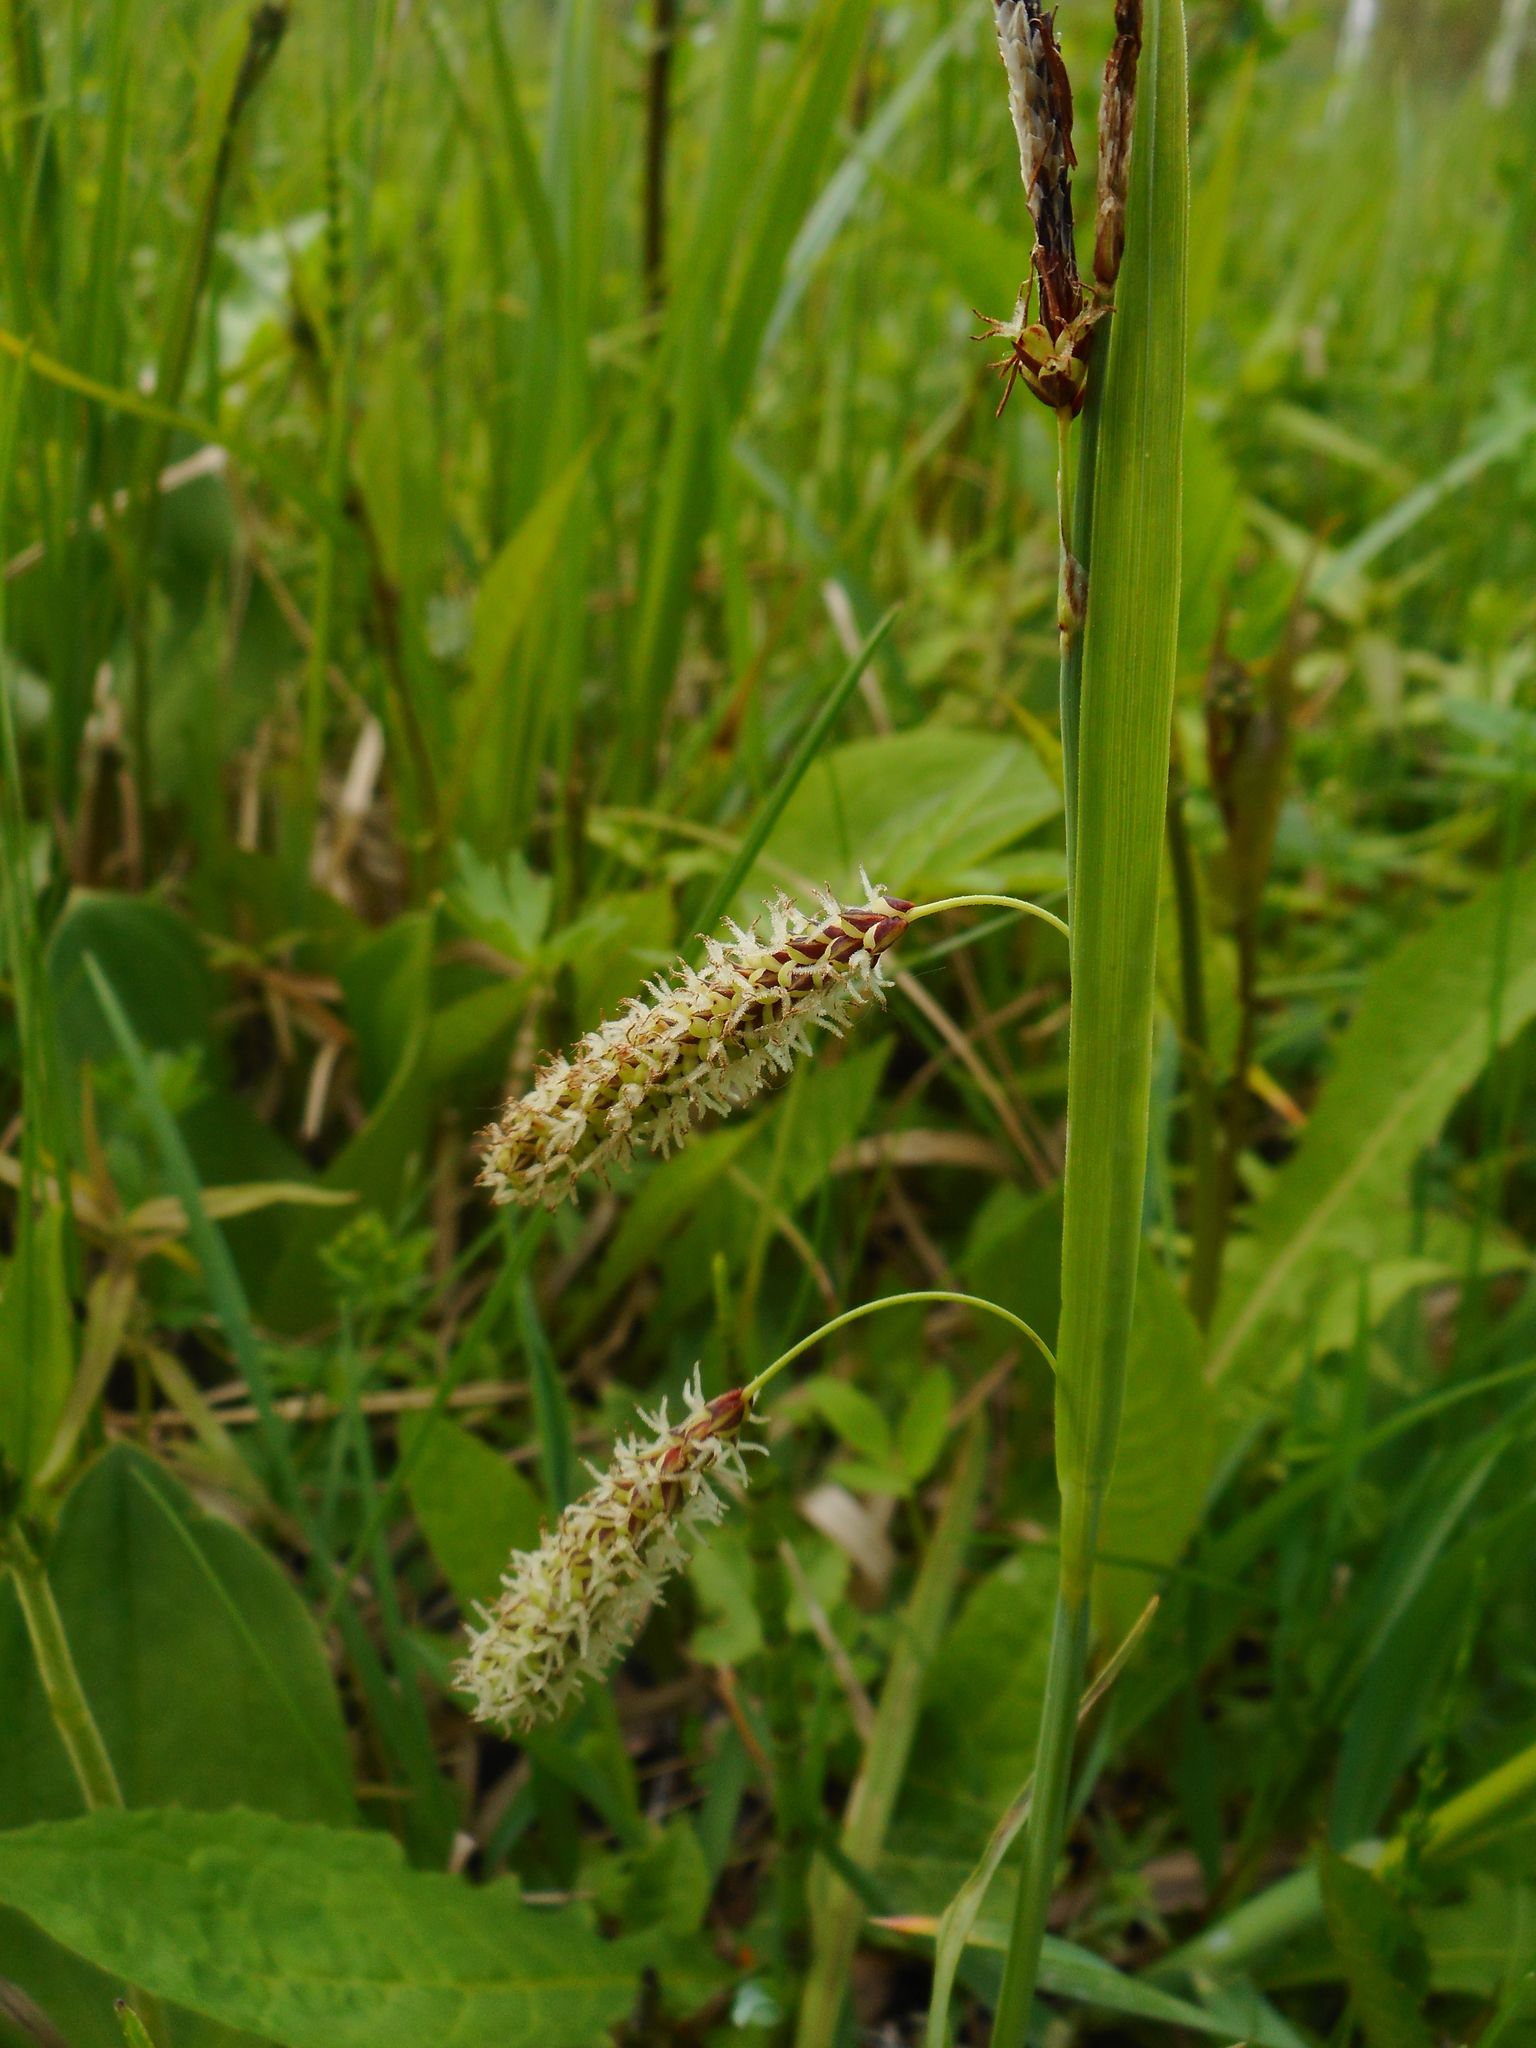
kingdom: Plantae
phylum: Tracheophyta
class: Liliopsida
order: Poales
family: Cyperaceae
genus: Carex
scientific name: Carex flacca
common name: Glaucous sedge
